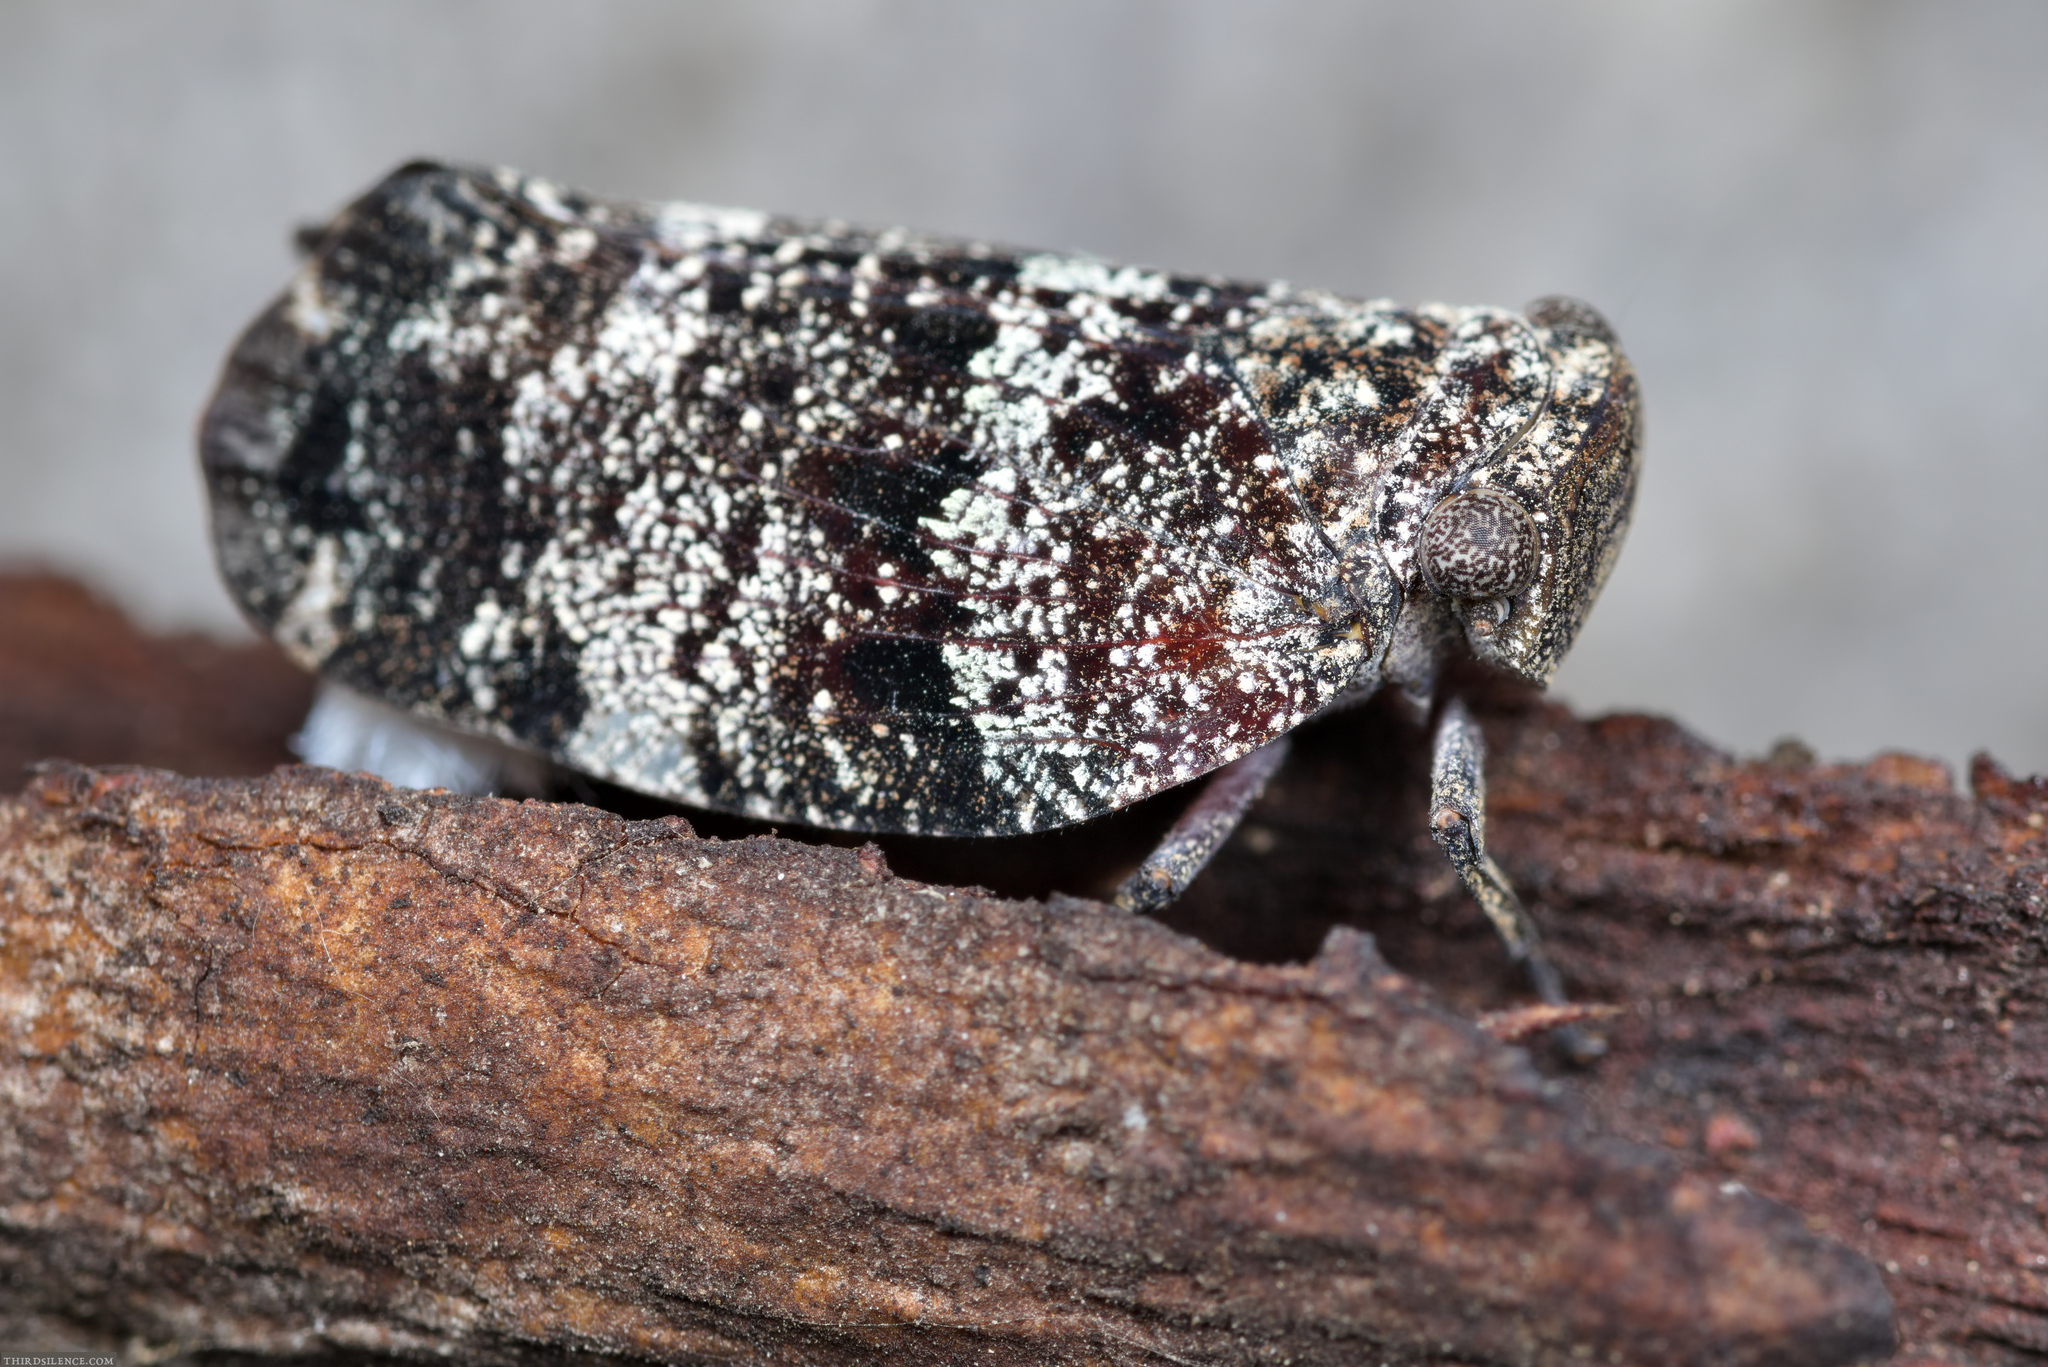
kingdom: Animalia
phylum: Arthropoda
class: Insecta
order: Hemiptera
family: Eurybrachidae
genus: Platybrachys
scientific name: Platybrachys decemmacula
